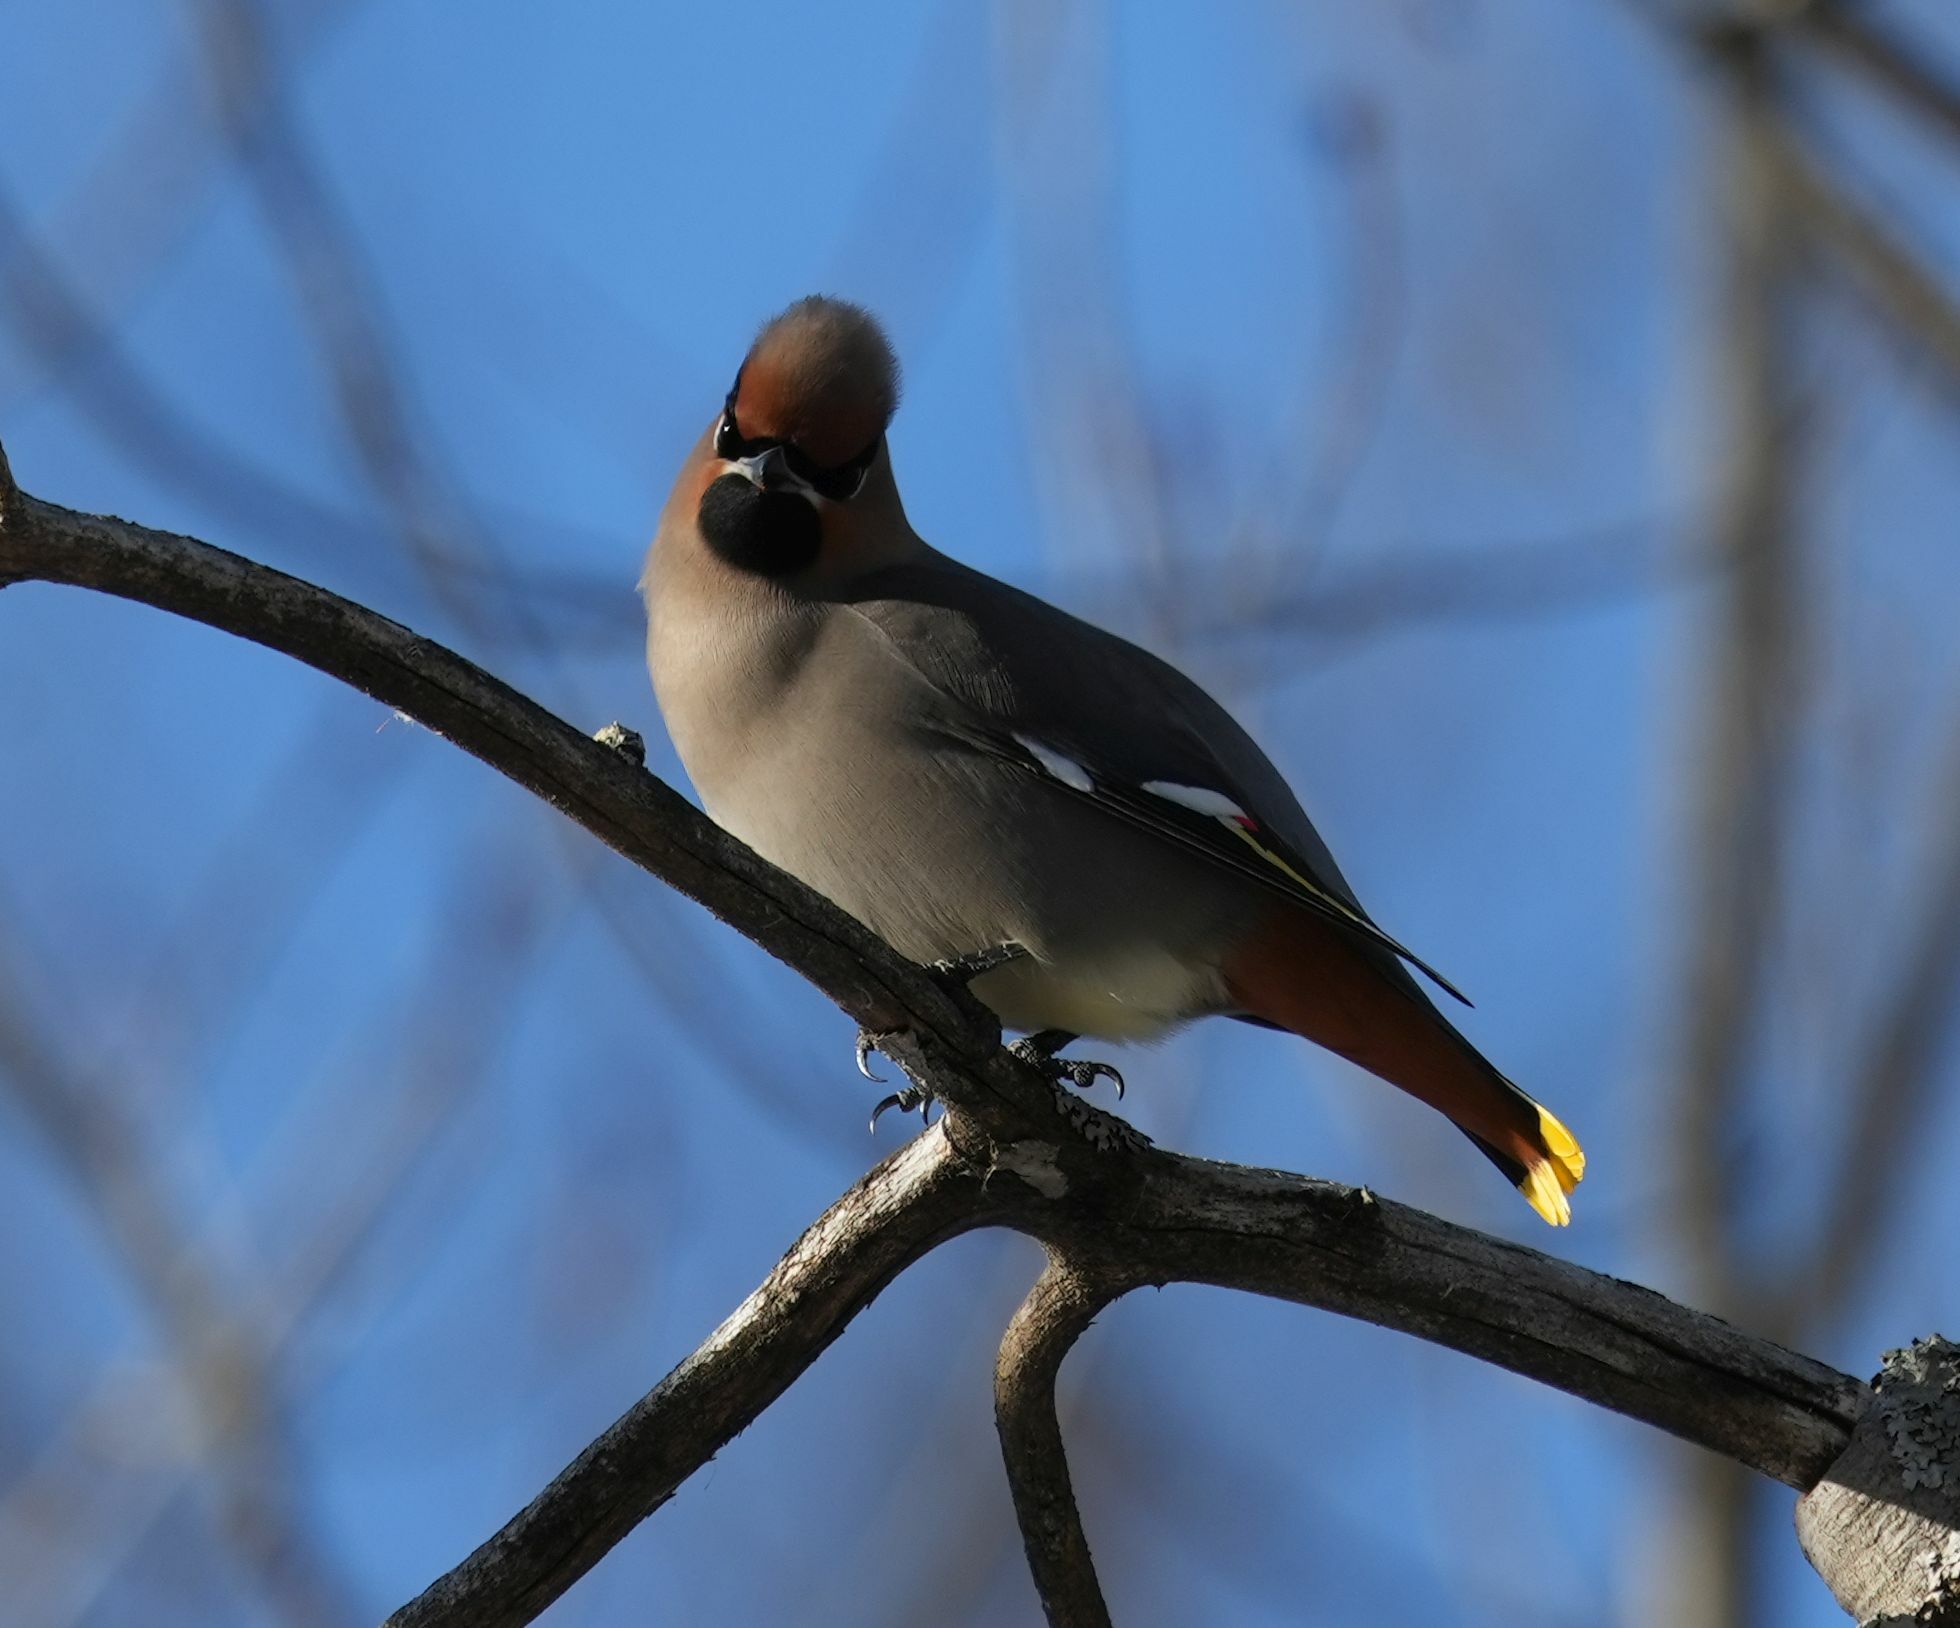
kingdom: Animalia
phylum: Chordata
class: Aves
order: Passeriformes
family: Bombycillidae
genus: Bombycilla
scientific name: Bombycilla garrulus
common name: Bohemian waxwing
